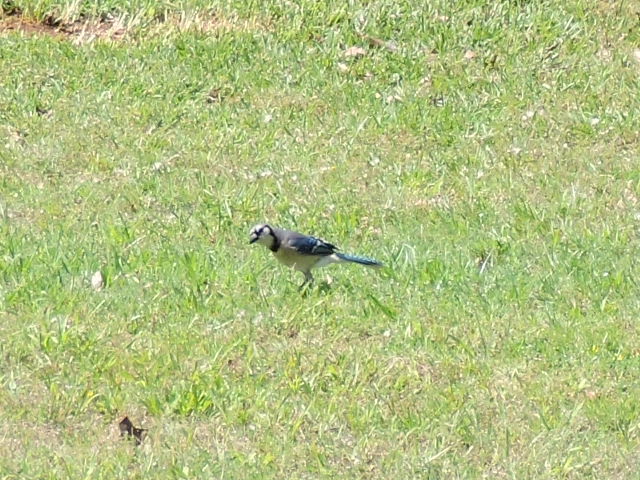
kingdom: Animalia
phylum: Chordata
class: Aves
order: Passeriformes
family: Corvidae
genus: Cyanocitta
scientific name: Cyanocitta cristata
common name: Blue jay
